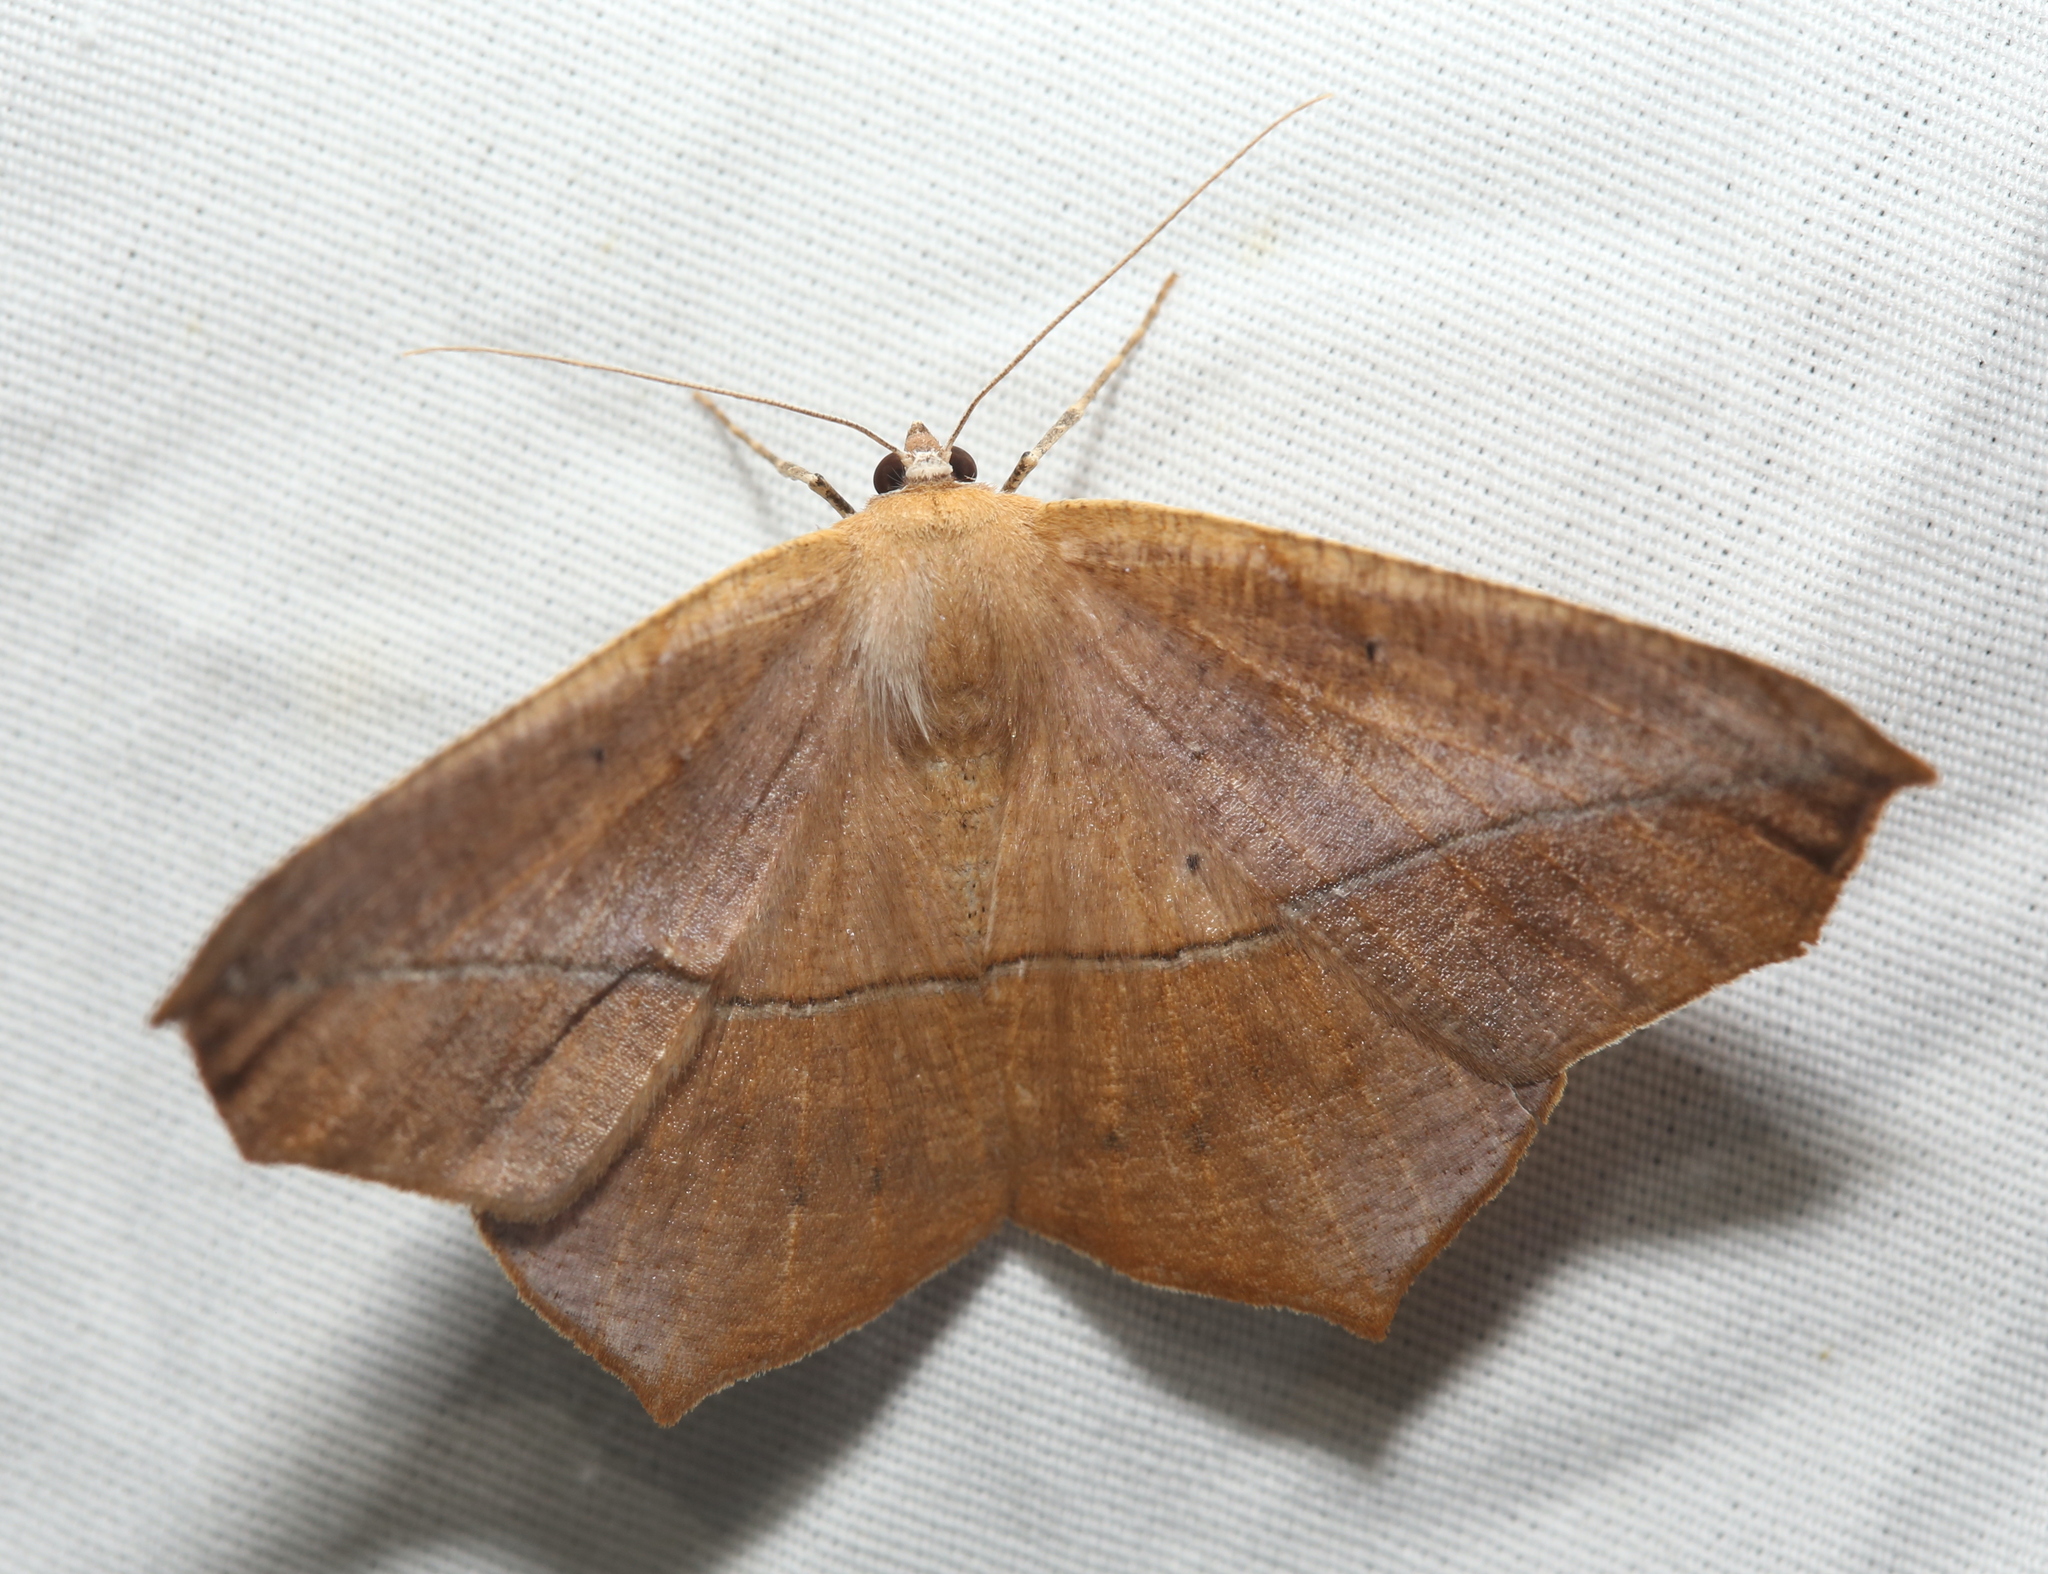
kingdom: Animalia
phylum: Arthropoda
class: Insecta
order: Lepidoptera
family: Geometridae
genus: Prochoerodes
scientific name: Prochoerodes lineola
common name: Large maple spanworm
